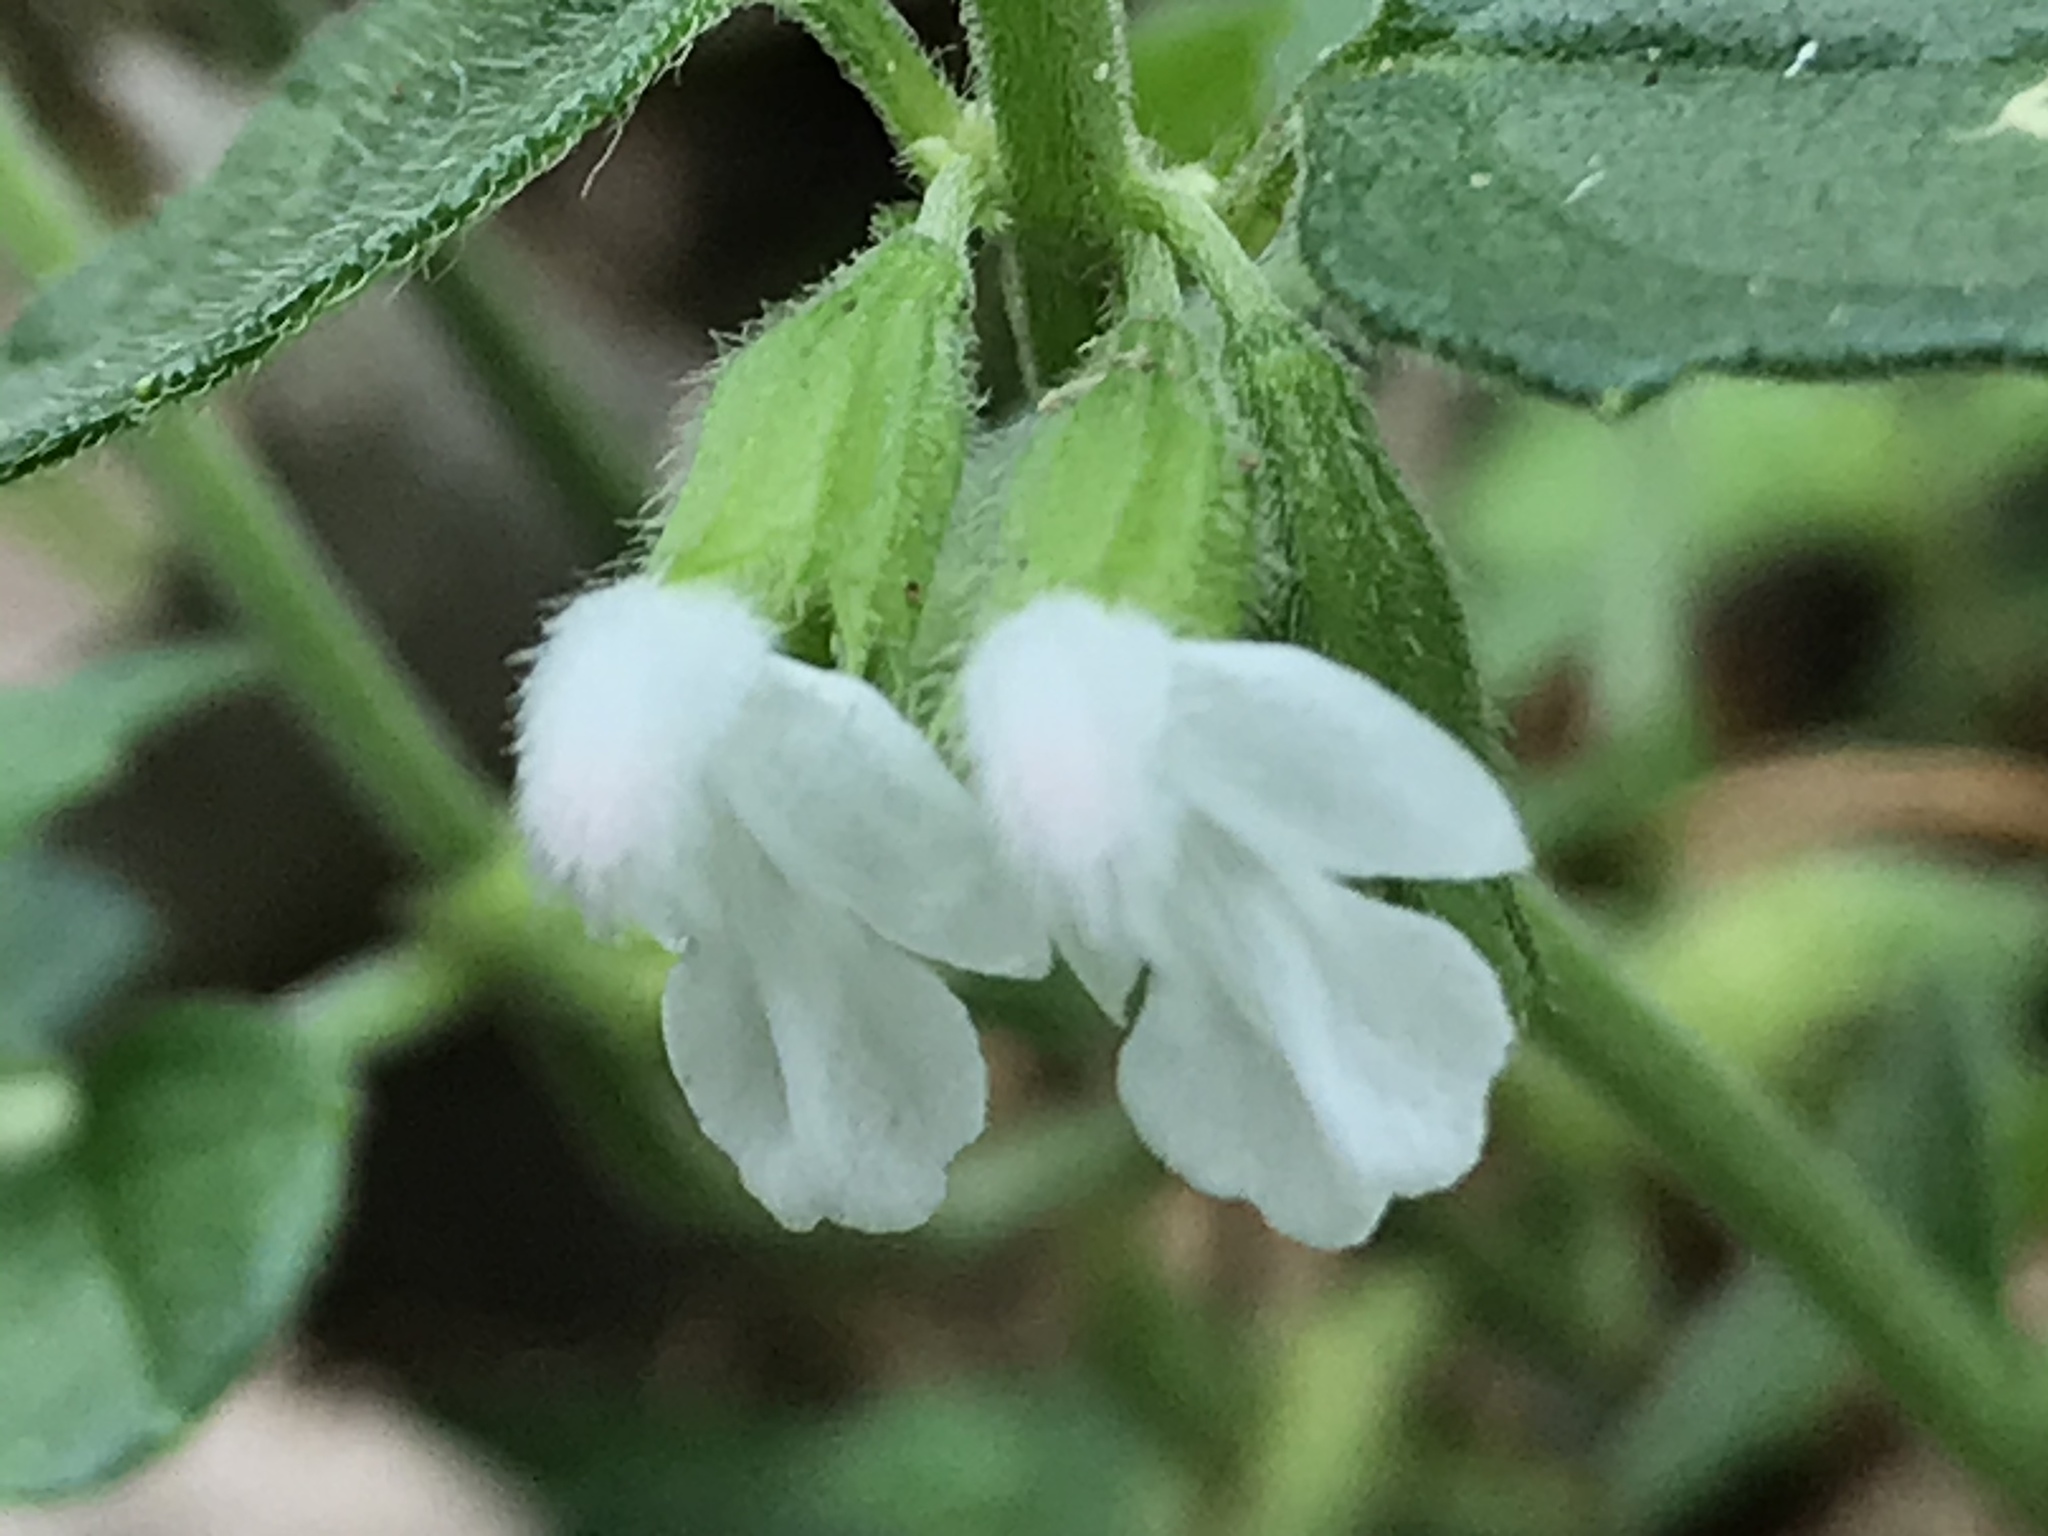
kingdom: Plantae
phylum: Tracheophyta
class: Magnoliopsida
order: Lamiales
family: Lamiaceae
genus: Leucas
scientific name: Leucas chinensis
